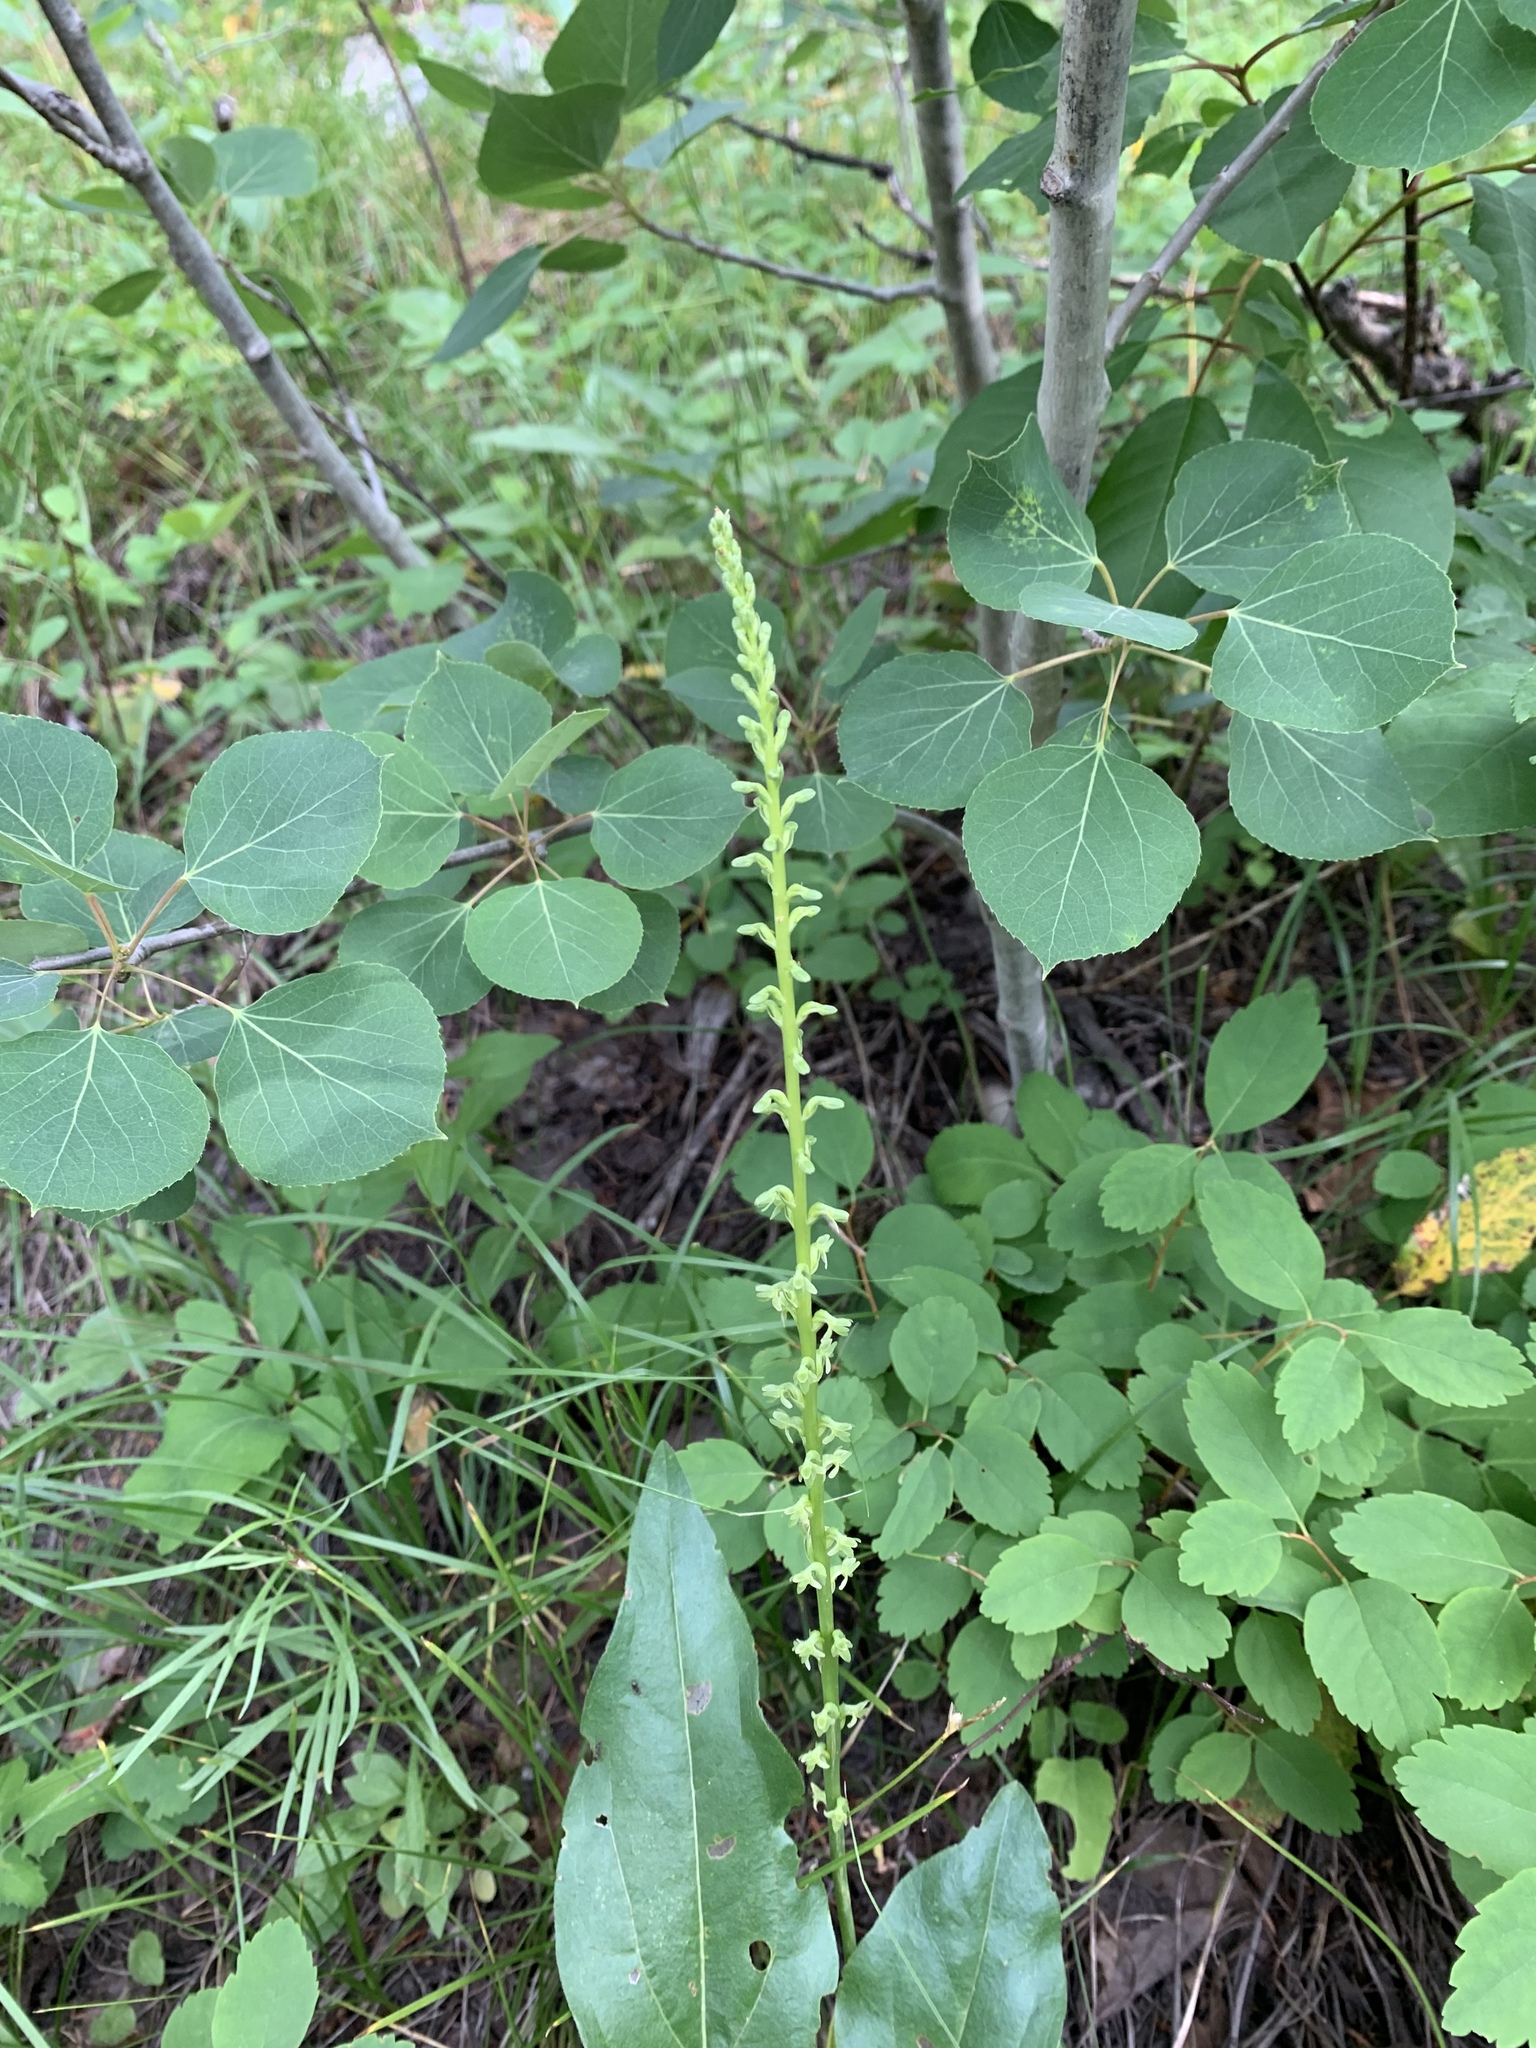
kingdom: Plantae
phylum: Tracheophyta
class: Liliopsida
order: Asparagales
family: Orchidaceae
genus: Platanthera
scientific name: Platanthera unalascensis
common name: Alaska bog orchid
